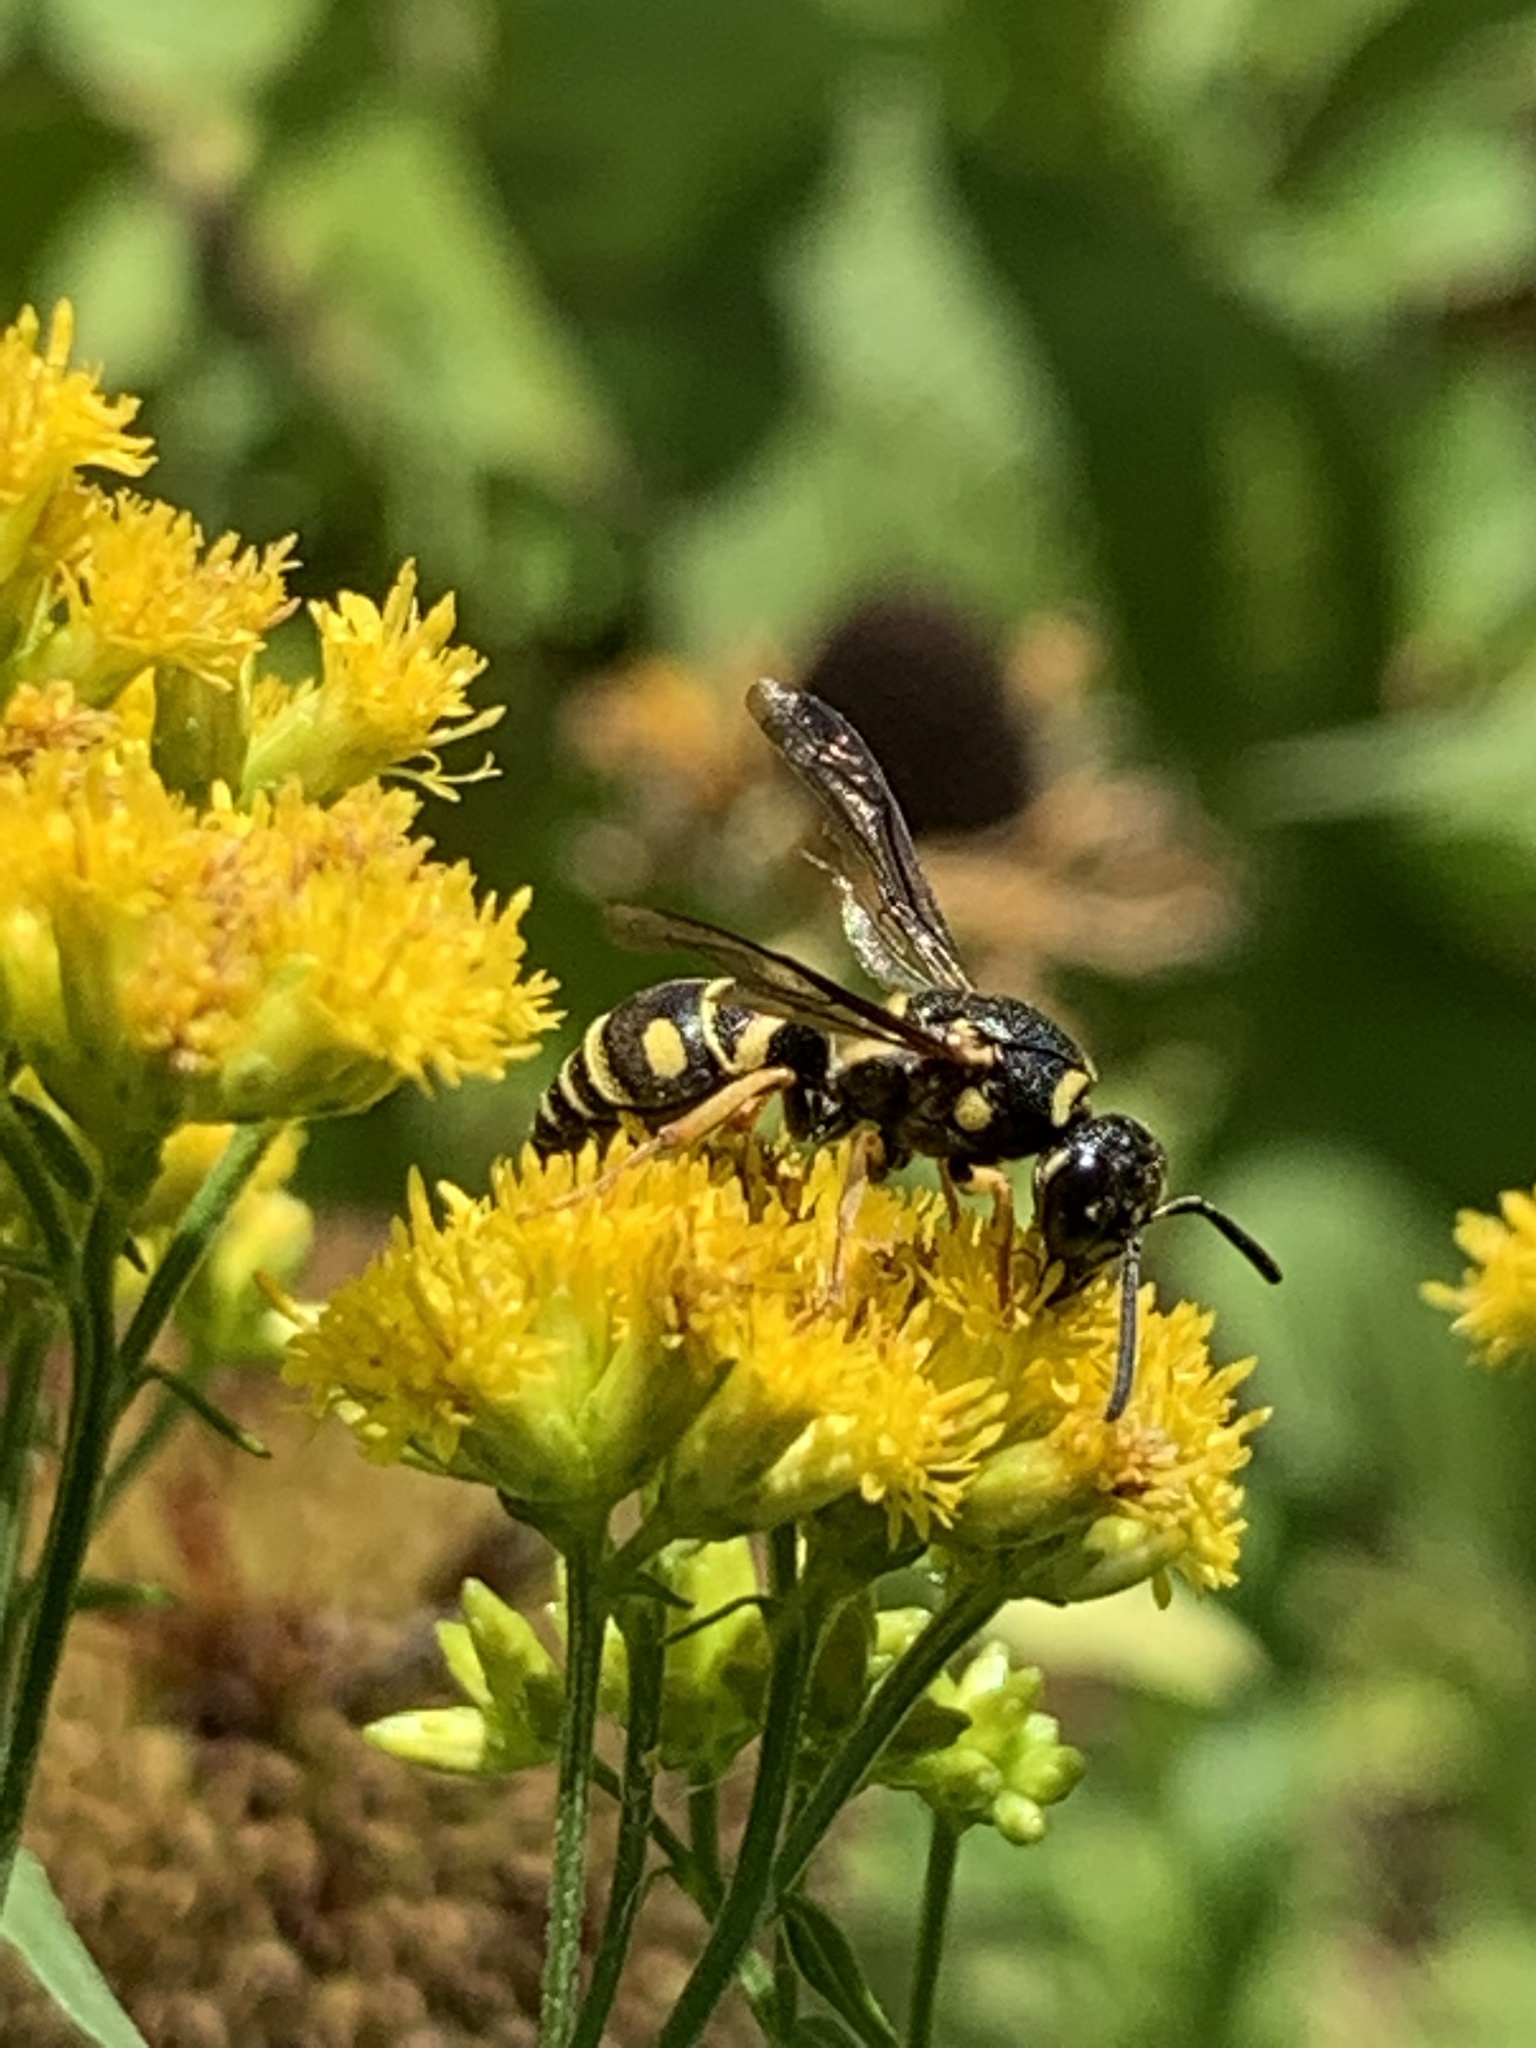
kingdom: Animalia
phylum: Arthropoda
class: Insecta
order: Hymenoptera
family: Eumenidae
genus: Parancistrocerus
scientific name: Parancistrocerus leionotus
